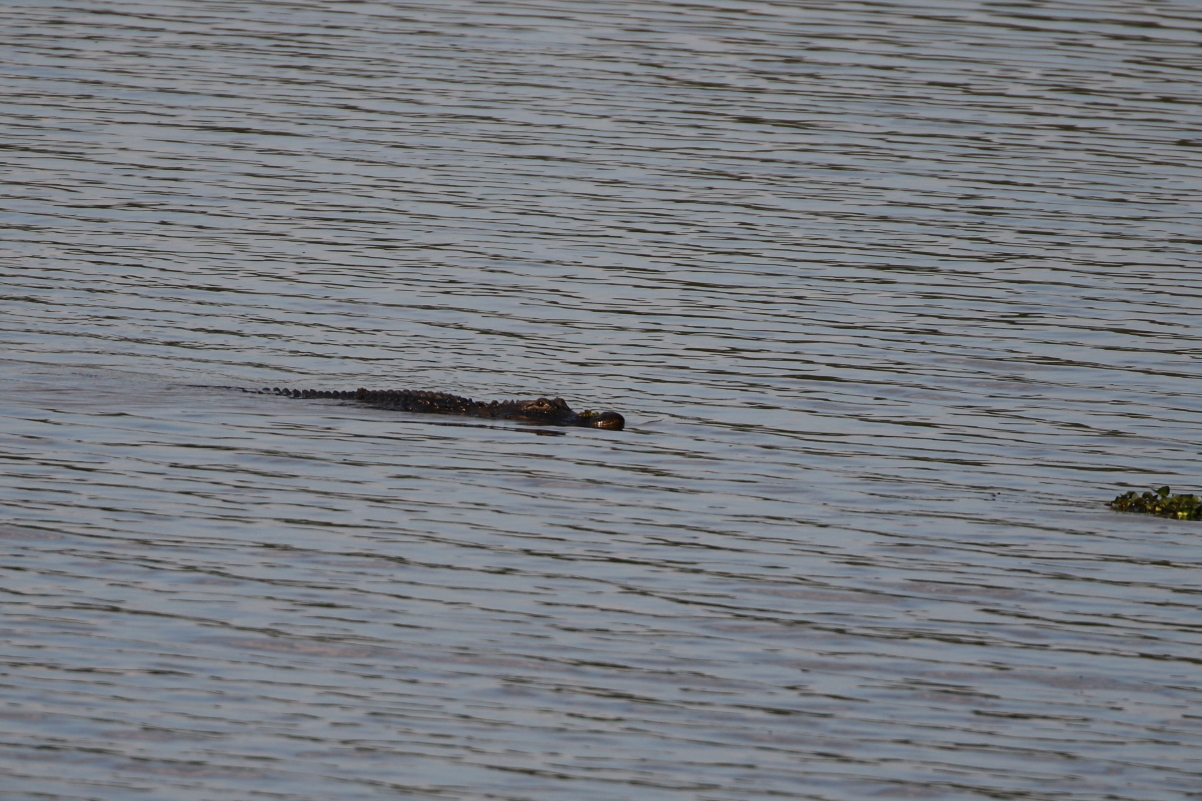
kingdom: Animalia
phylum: Chordata
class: Crocodylia
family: Alligatoridae
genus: Alligator
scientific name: Alligator mississippiensis
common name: American alligator
